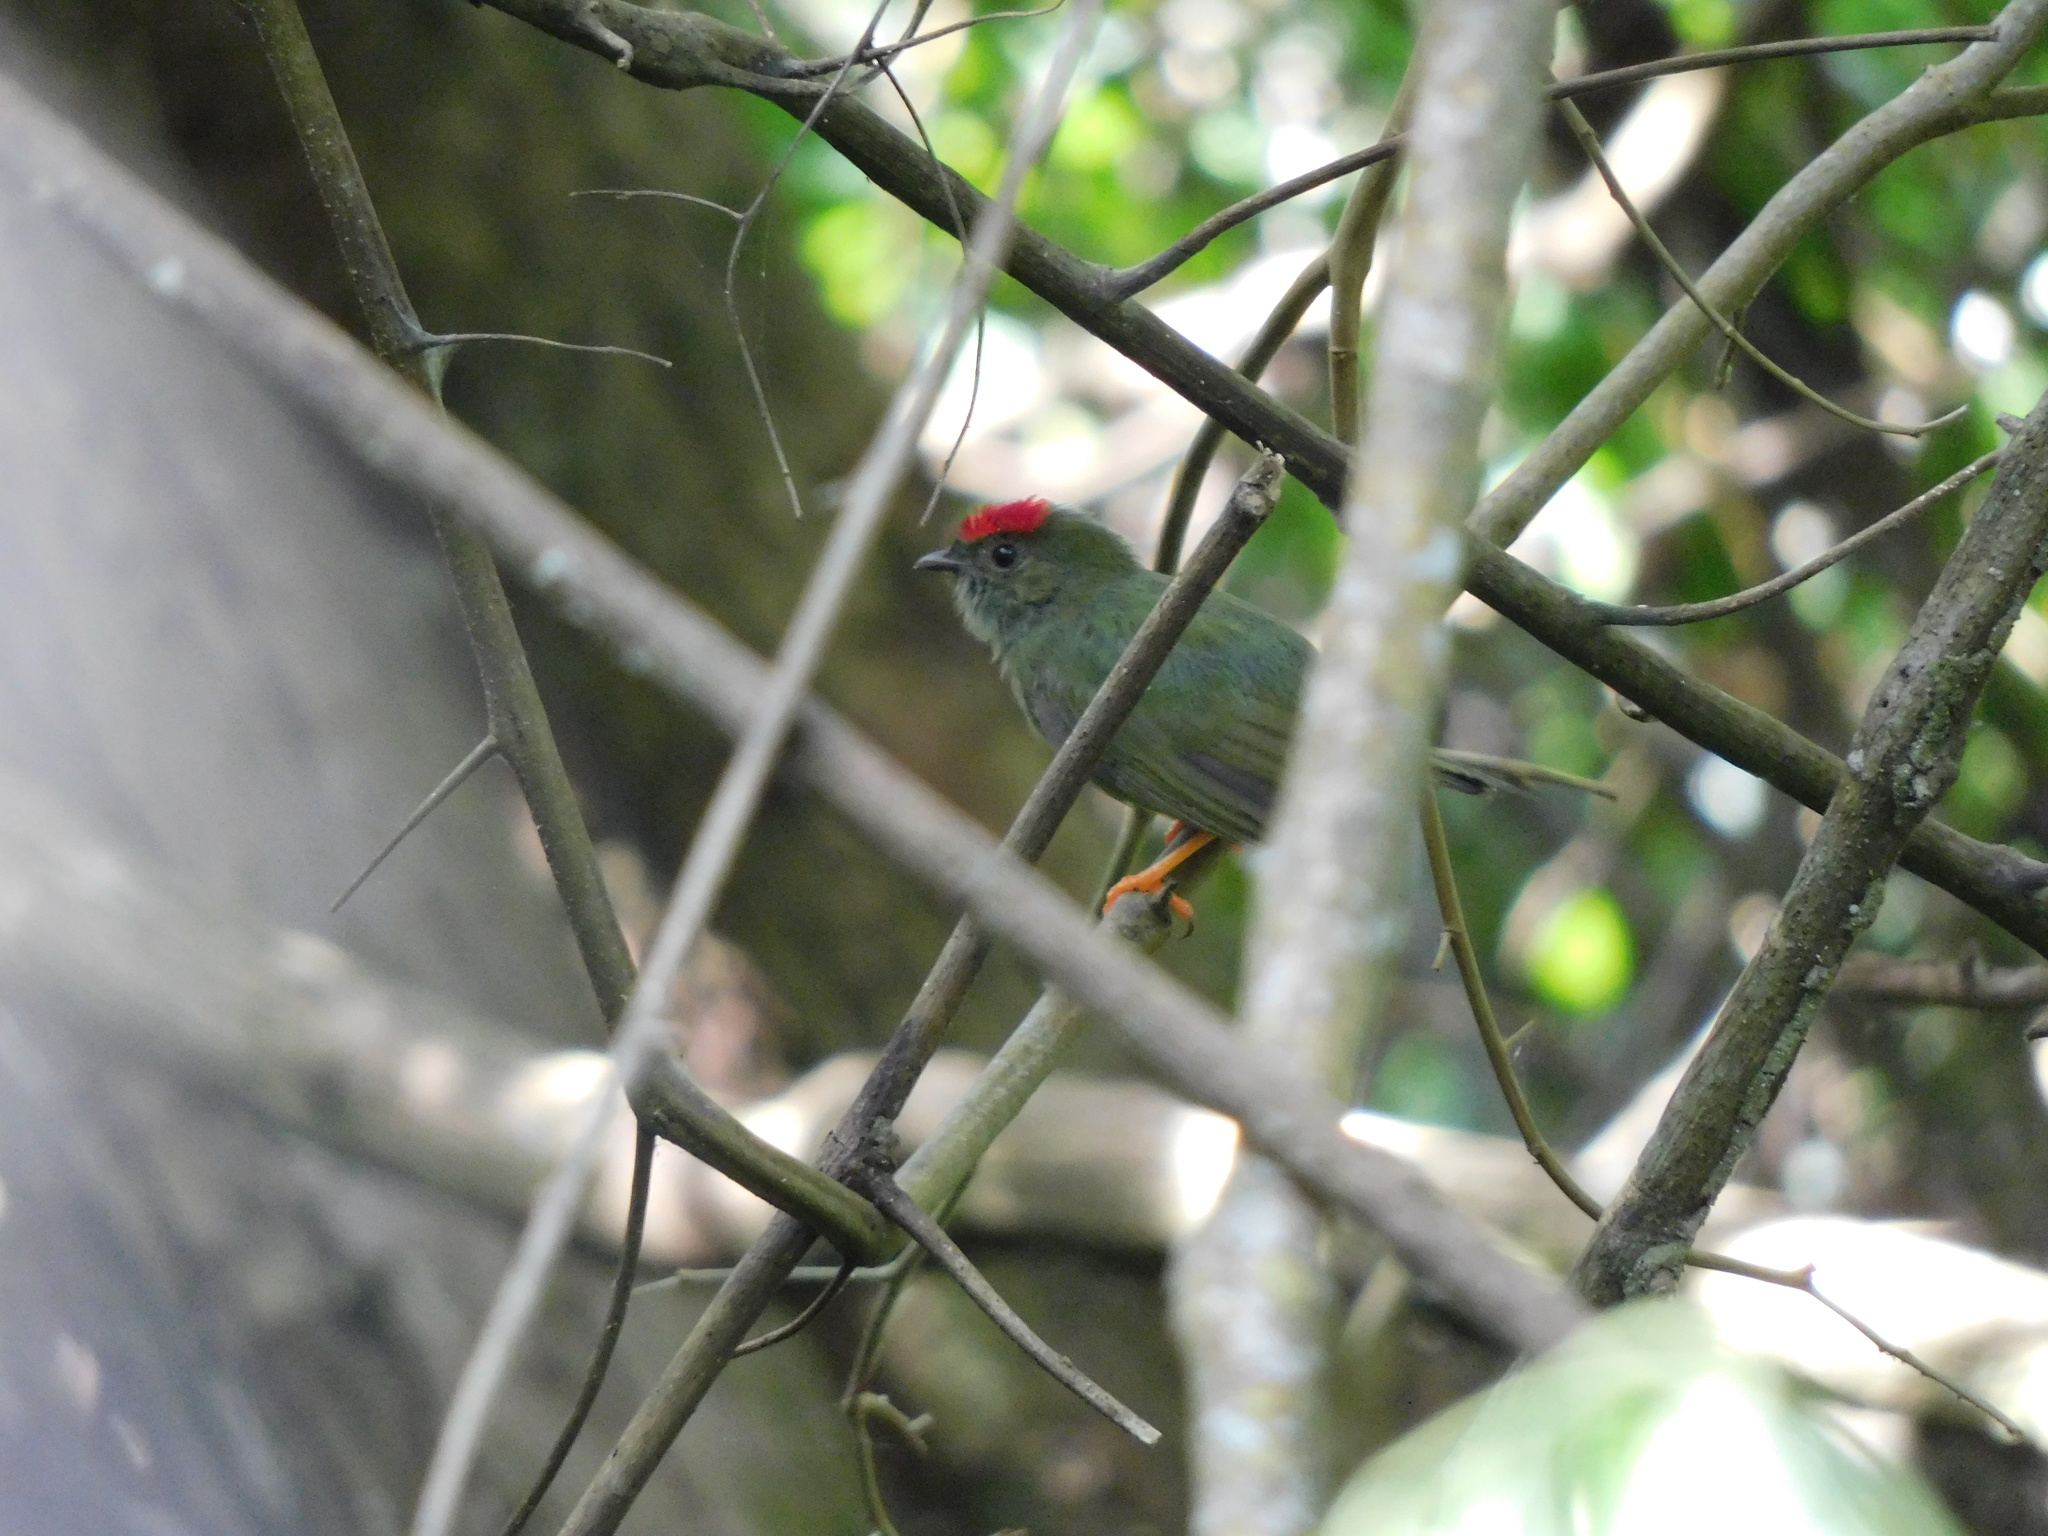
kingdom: Animalia
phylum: Chordata
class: Aves
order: Passeriformes
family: Pipridae
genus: Chiroxiphia
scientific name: Chiroxiphia lanceolata
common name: Lance-tailed manakin
